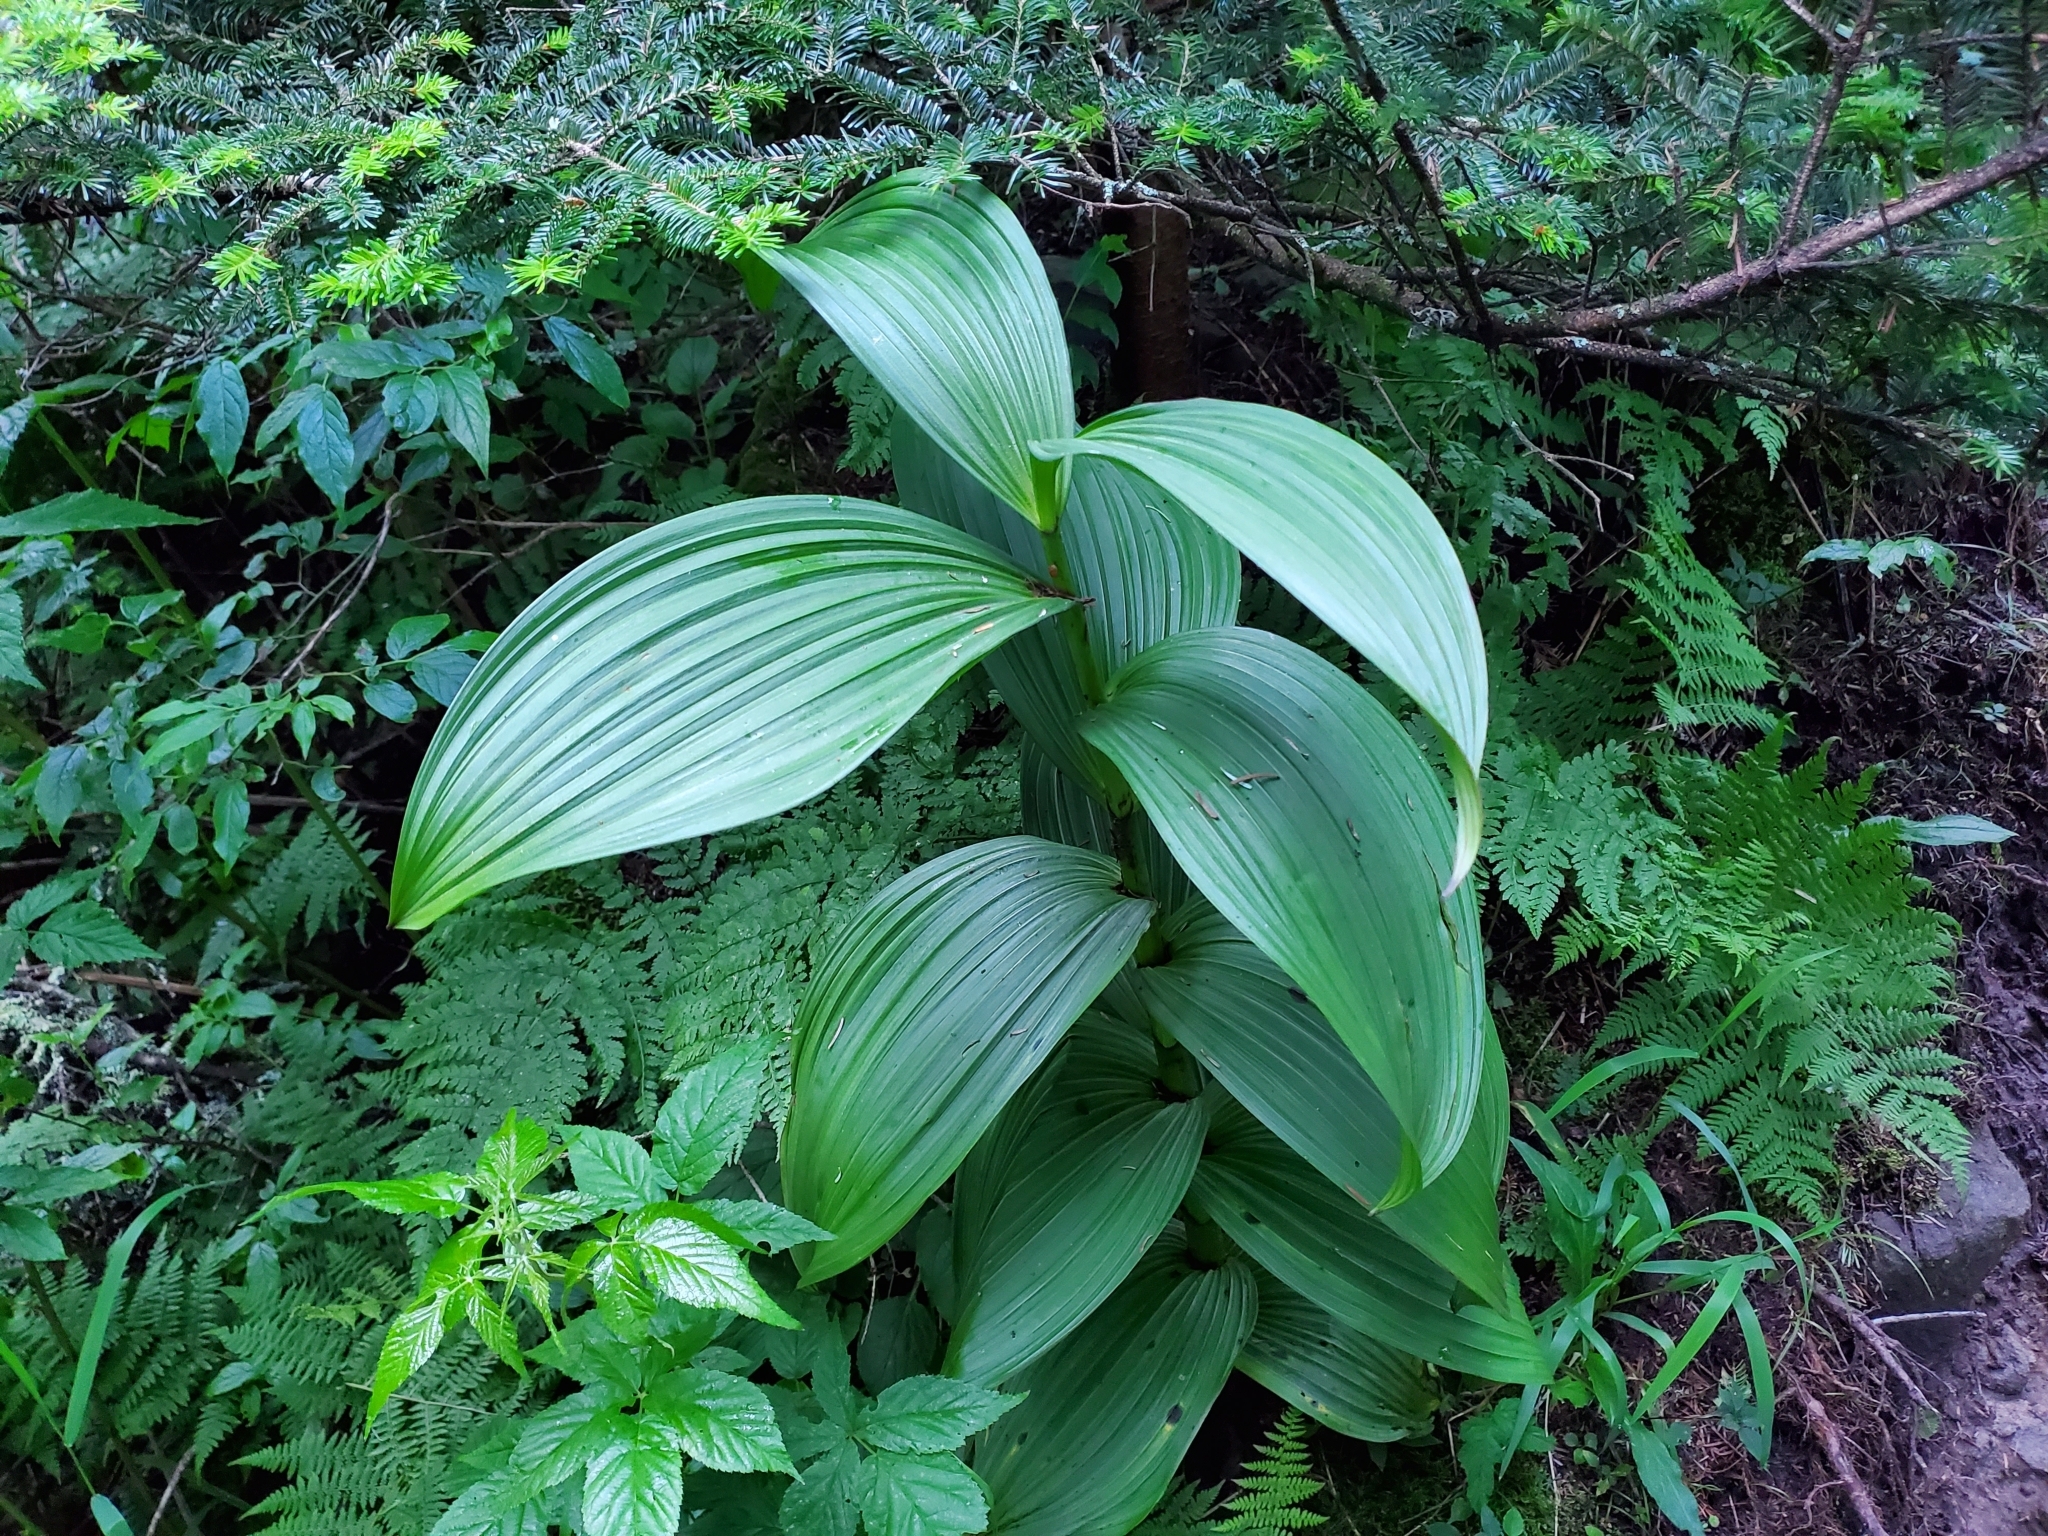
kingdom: Plantae
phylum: Tracheophyta
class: Liliopsida
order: Liliales
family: Melanthiaceae
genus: Veratrum
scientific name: Veratrum viride
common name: American false hellebore
